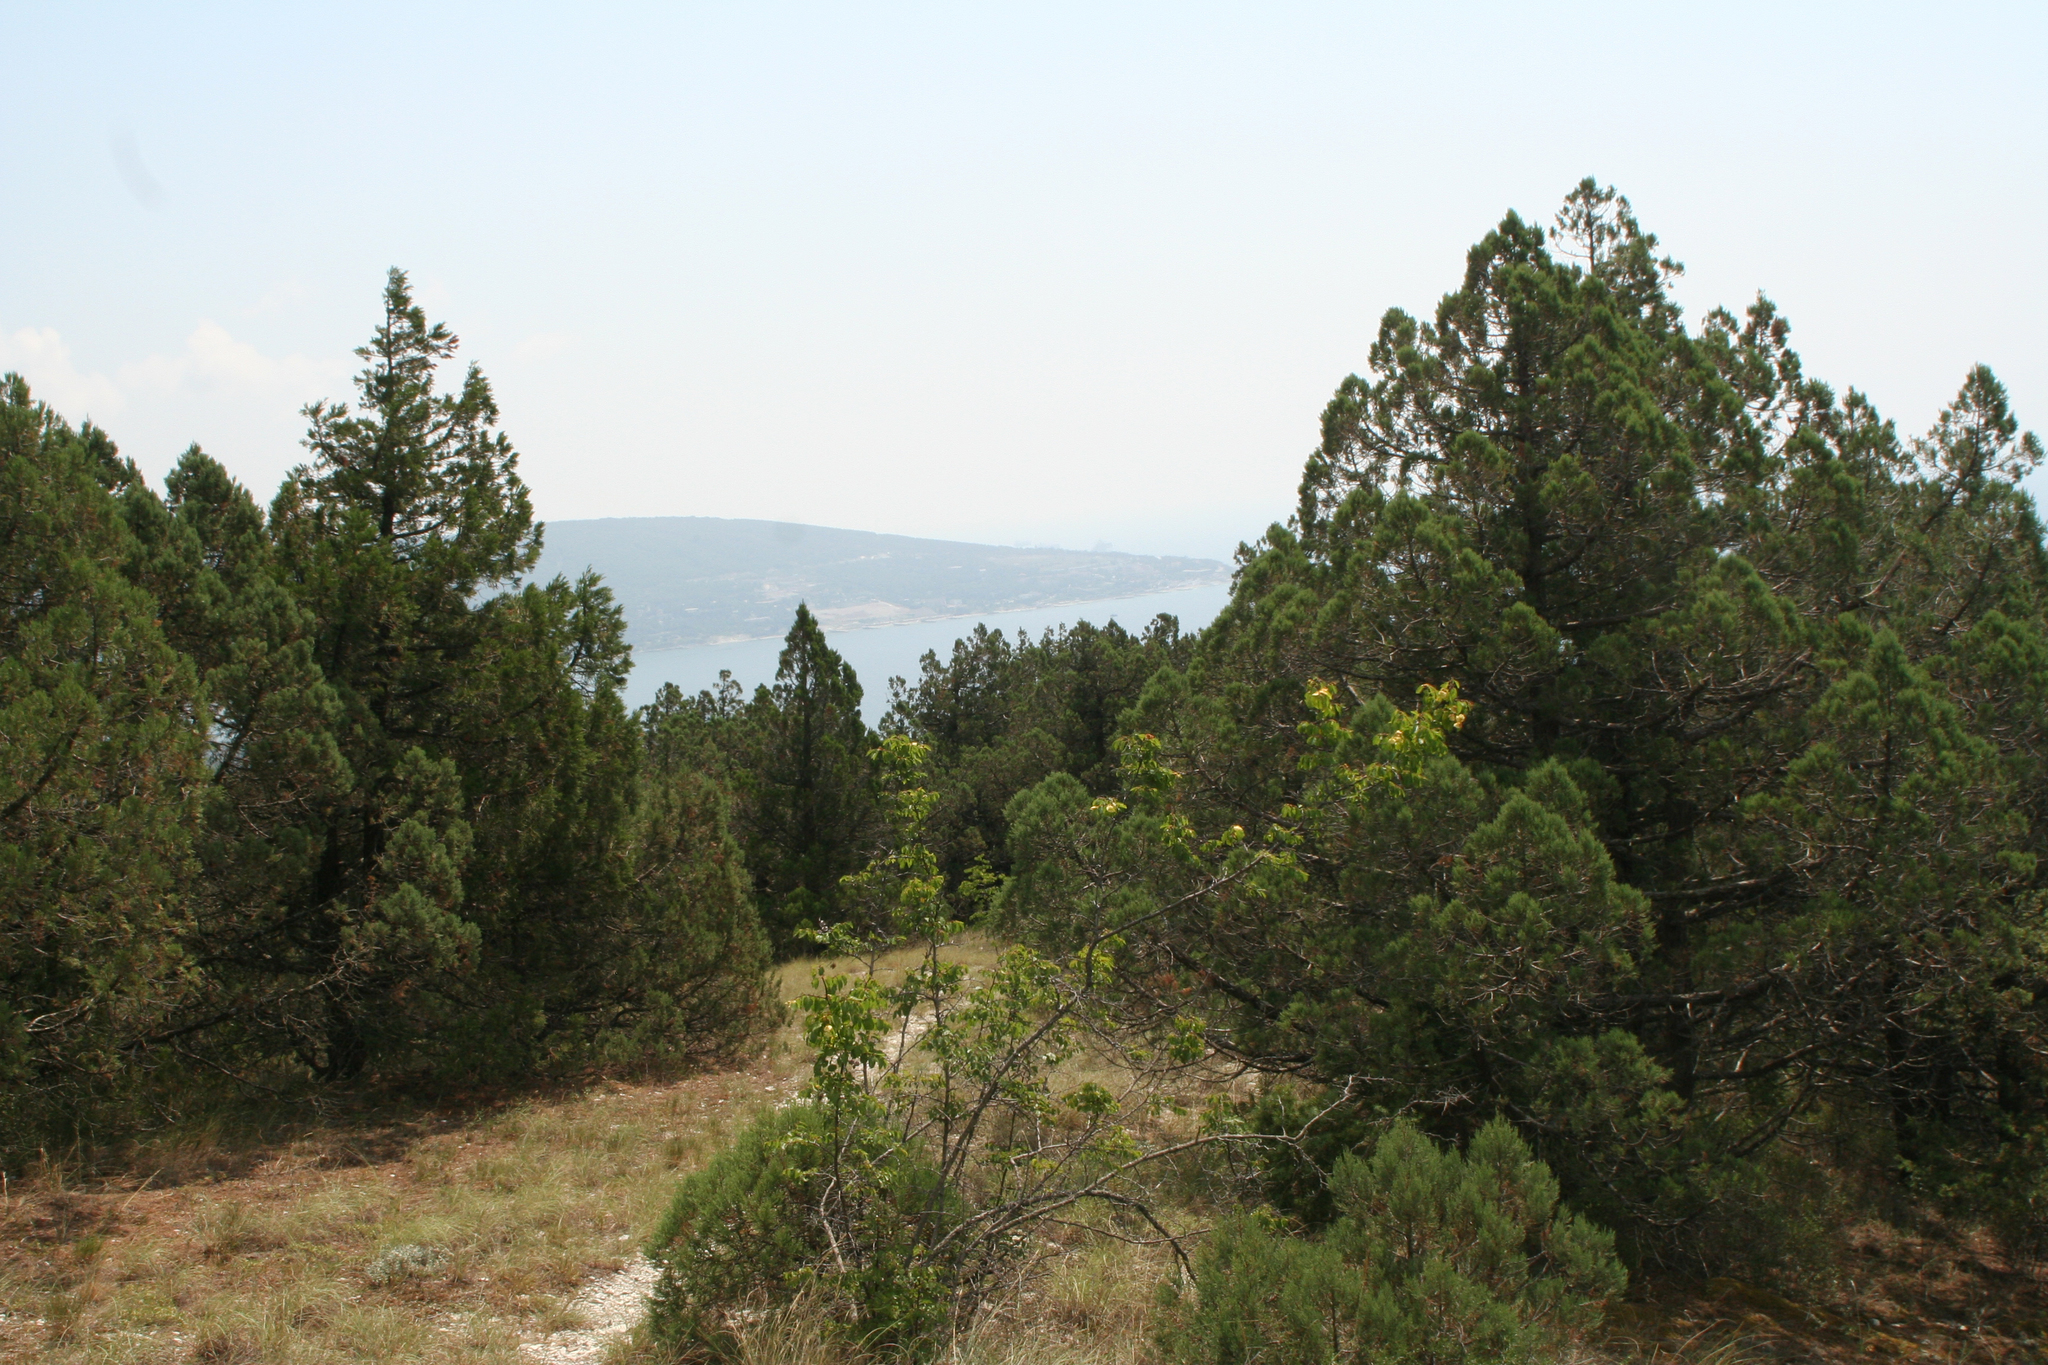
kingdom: Plantae
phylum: Tracheophyta
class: Magnoliopsida
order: Rosales
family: Rhamnaceae
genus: Paliurus
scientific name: Paliurus spina-christi
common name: Jeruselem thorn
